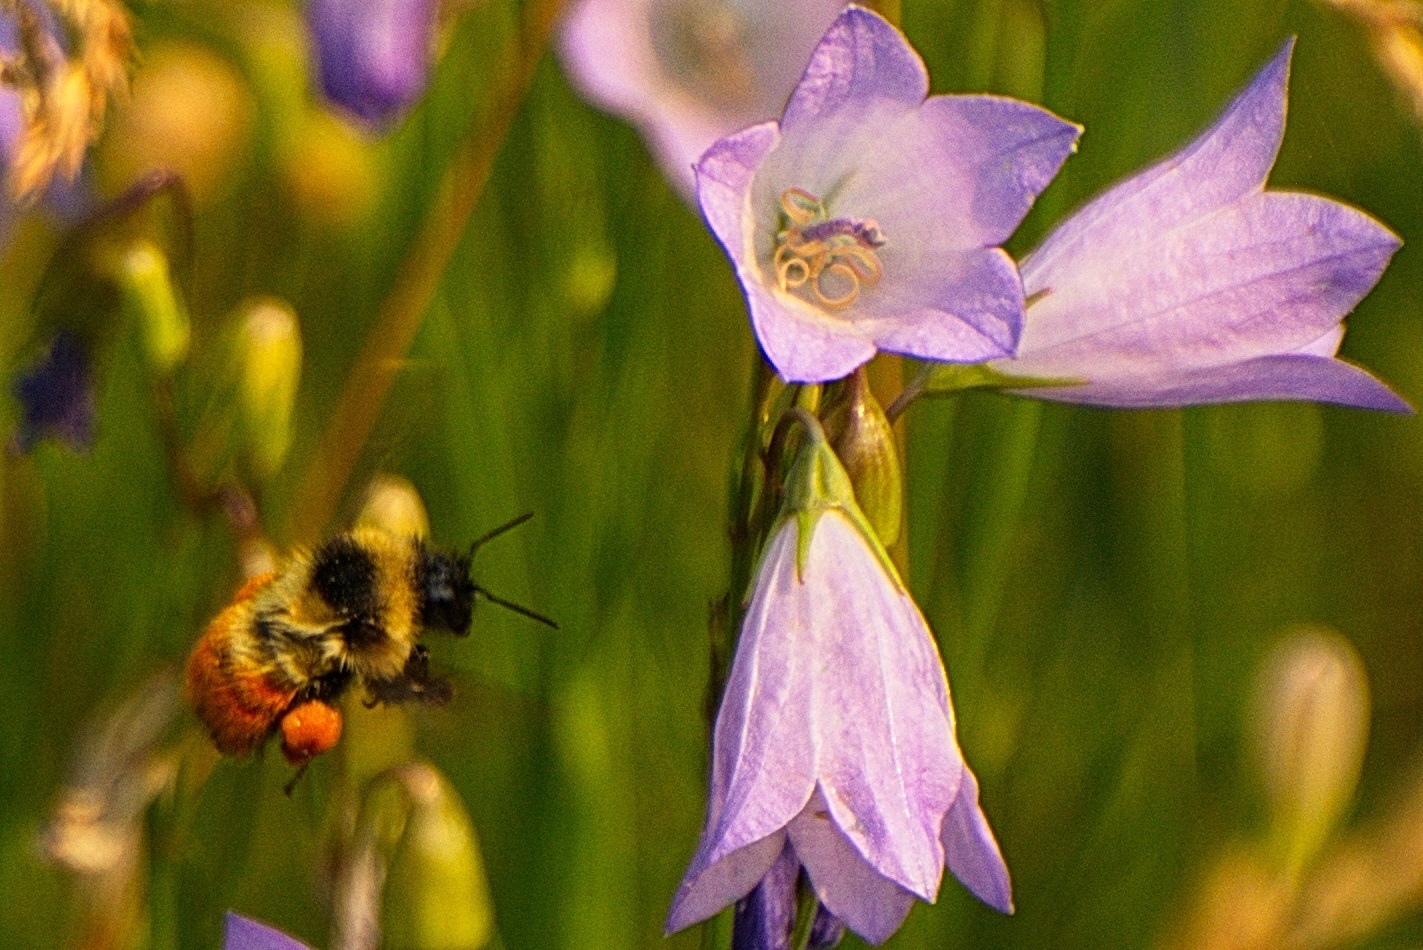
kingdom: Animalia
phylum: Arthropoda
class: Insecta
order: Hymenoptera
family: Apidae
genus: Bombus
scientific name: Bombus rufocinctus
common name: Red-belted bumble bee
